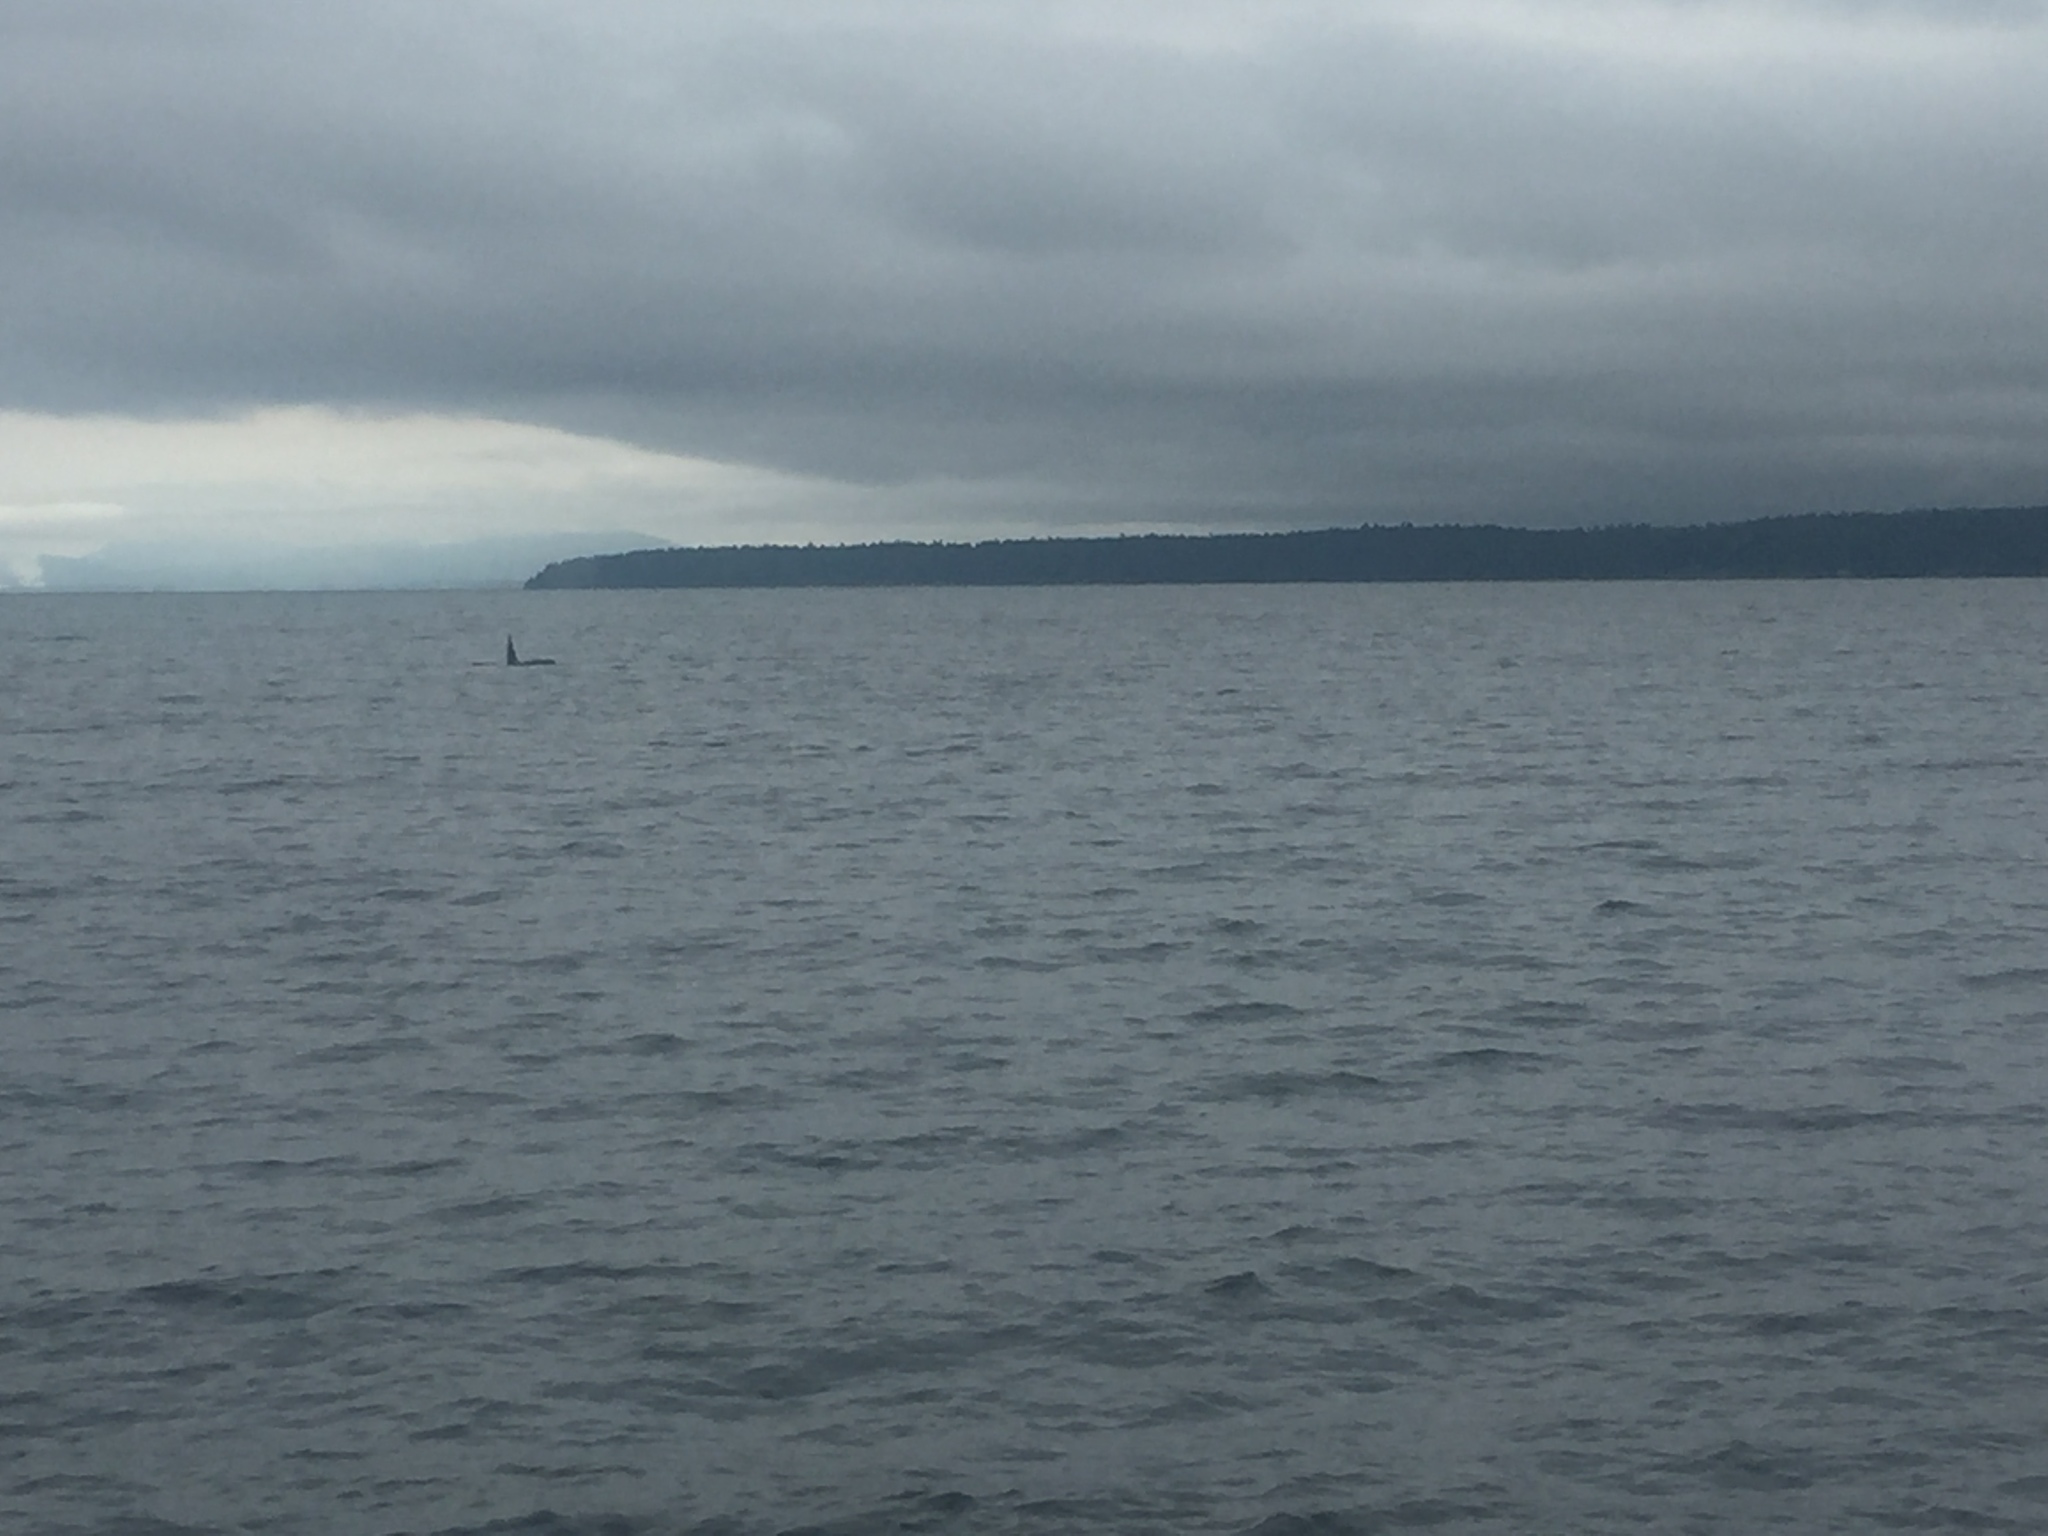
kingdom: Animalia
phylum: Chordata
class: Mammalia
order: Cetacea
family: Delphinidae
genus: Orcinus
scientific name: Orcinus orca
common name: Killer whale
